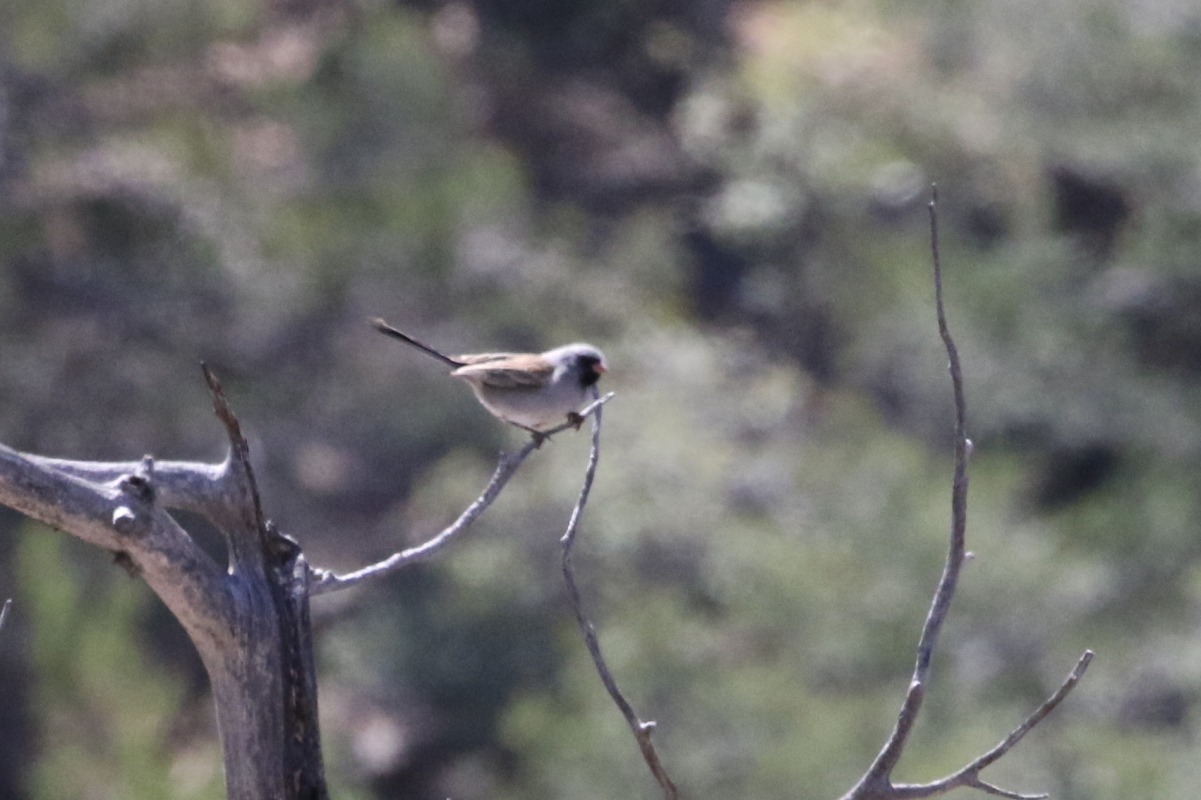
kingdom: Animalia
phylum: Chordata
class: Aves
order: Passeriformes
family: Passerellidae
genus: Spizella
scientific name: Spizella atrogularis
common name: Black-chinned sparrow
